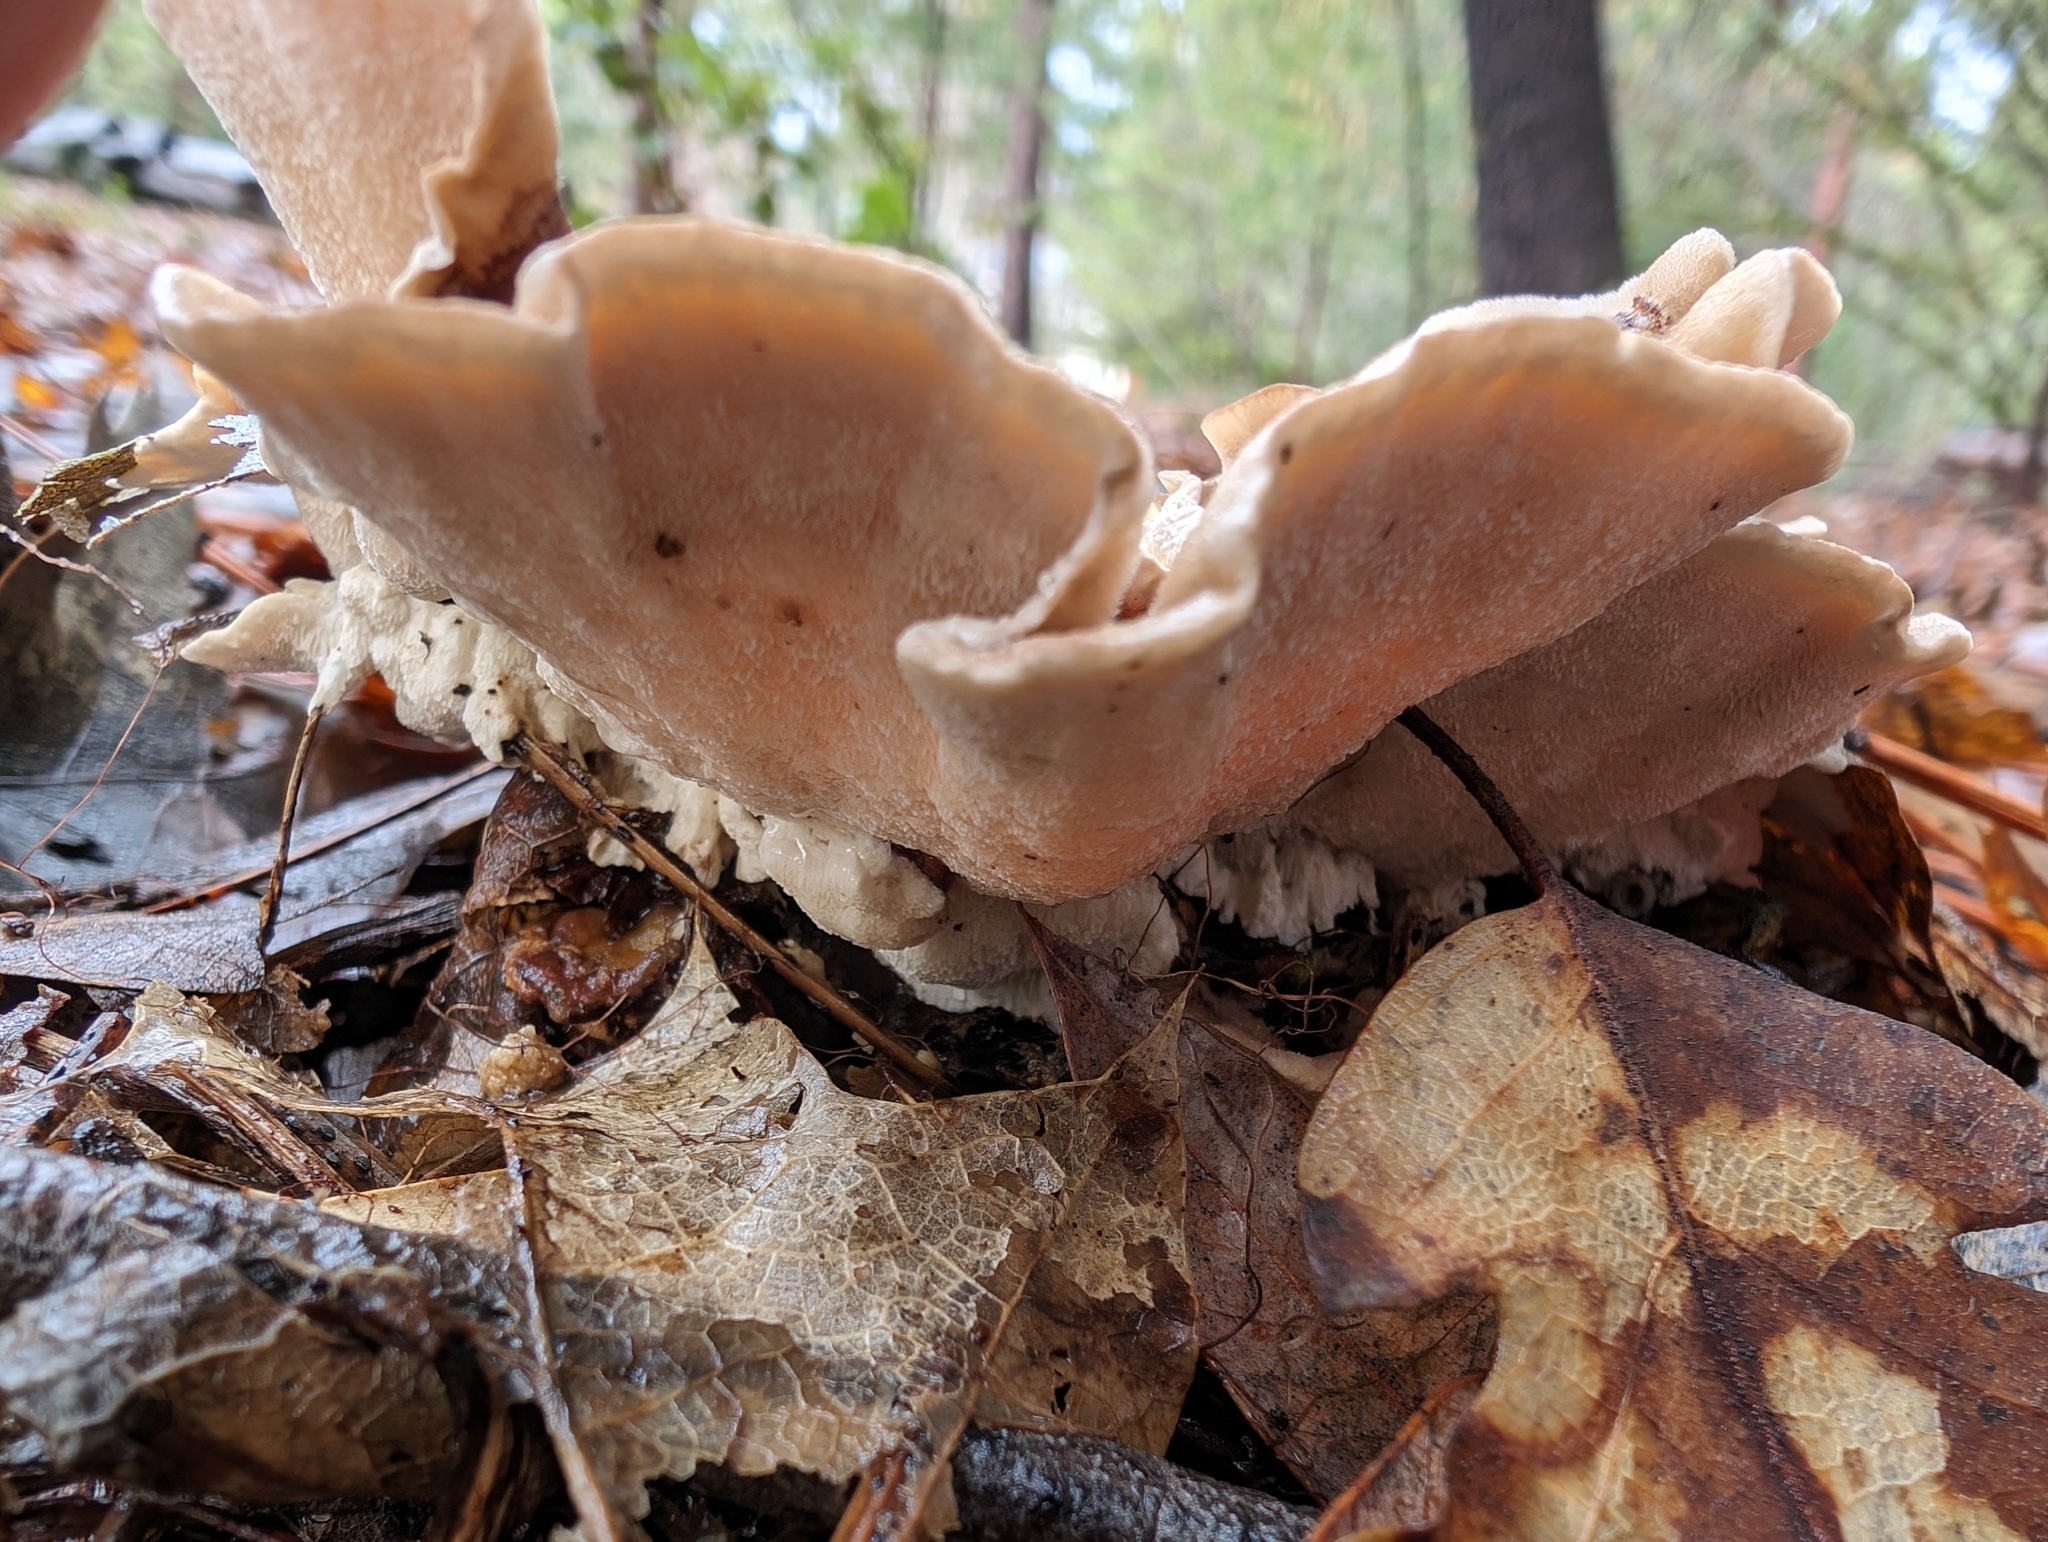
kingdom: Fungi
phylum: Basidiomycota
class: Agaricomycetes
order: Polyporales
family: Polyporaceae
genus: Trametes
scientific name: Trametes versicolor
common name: Turkeytail
